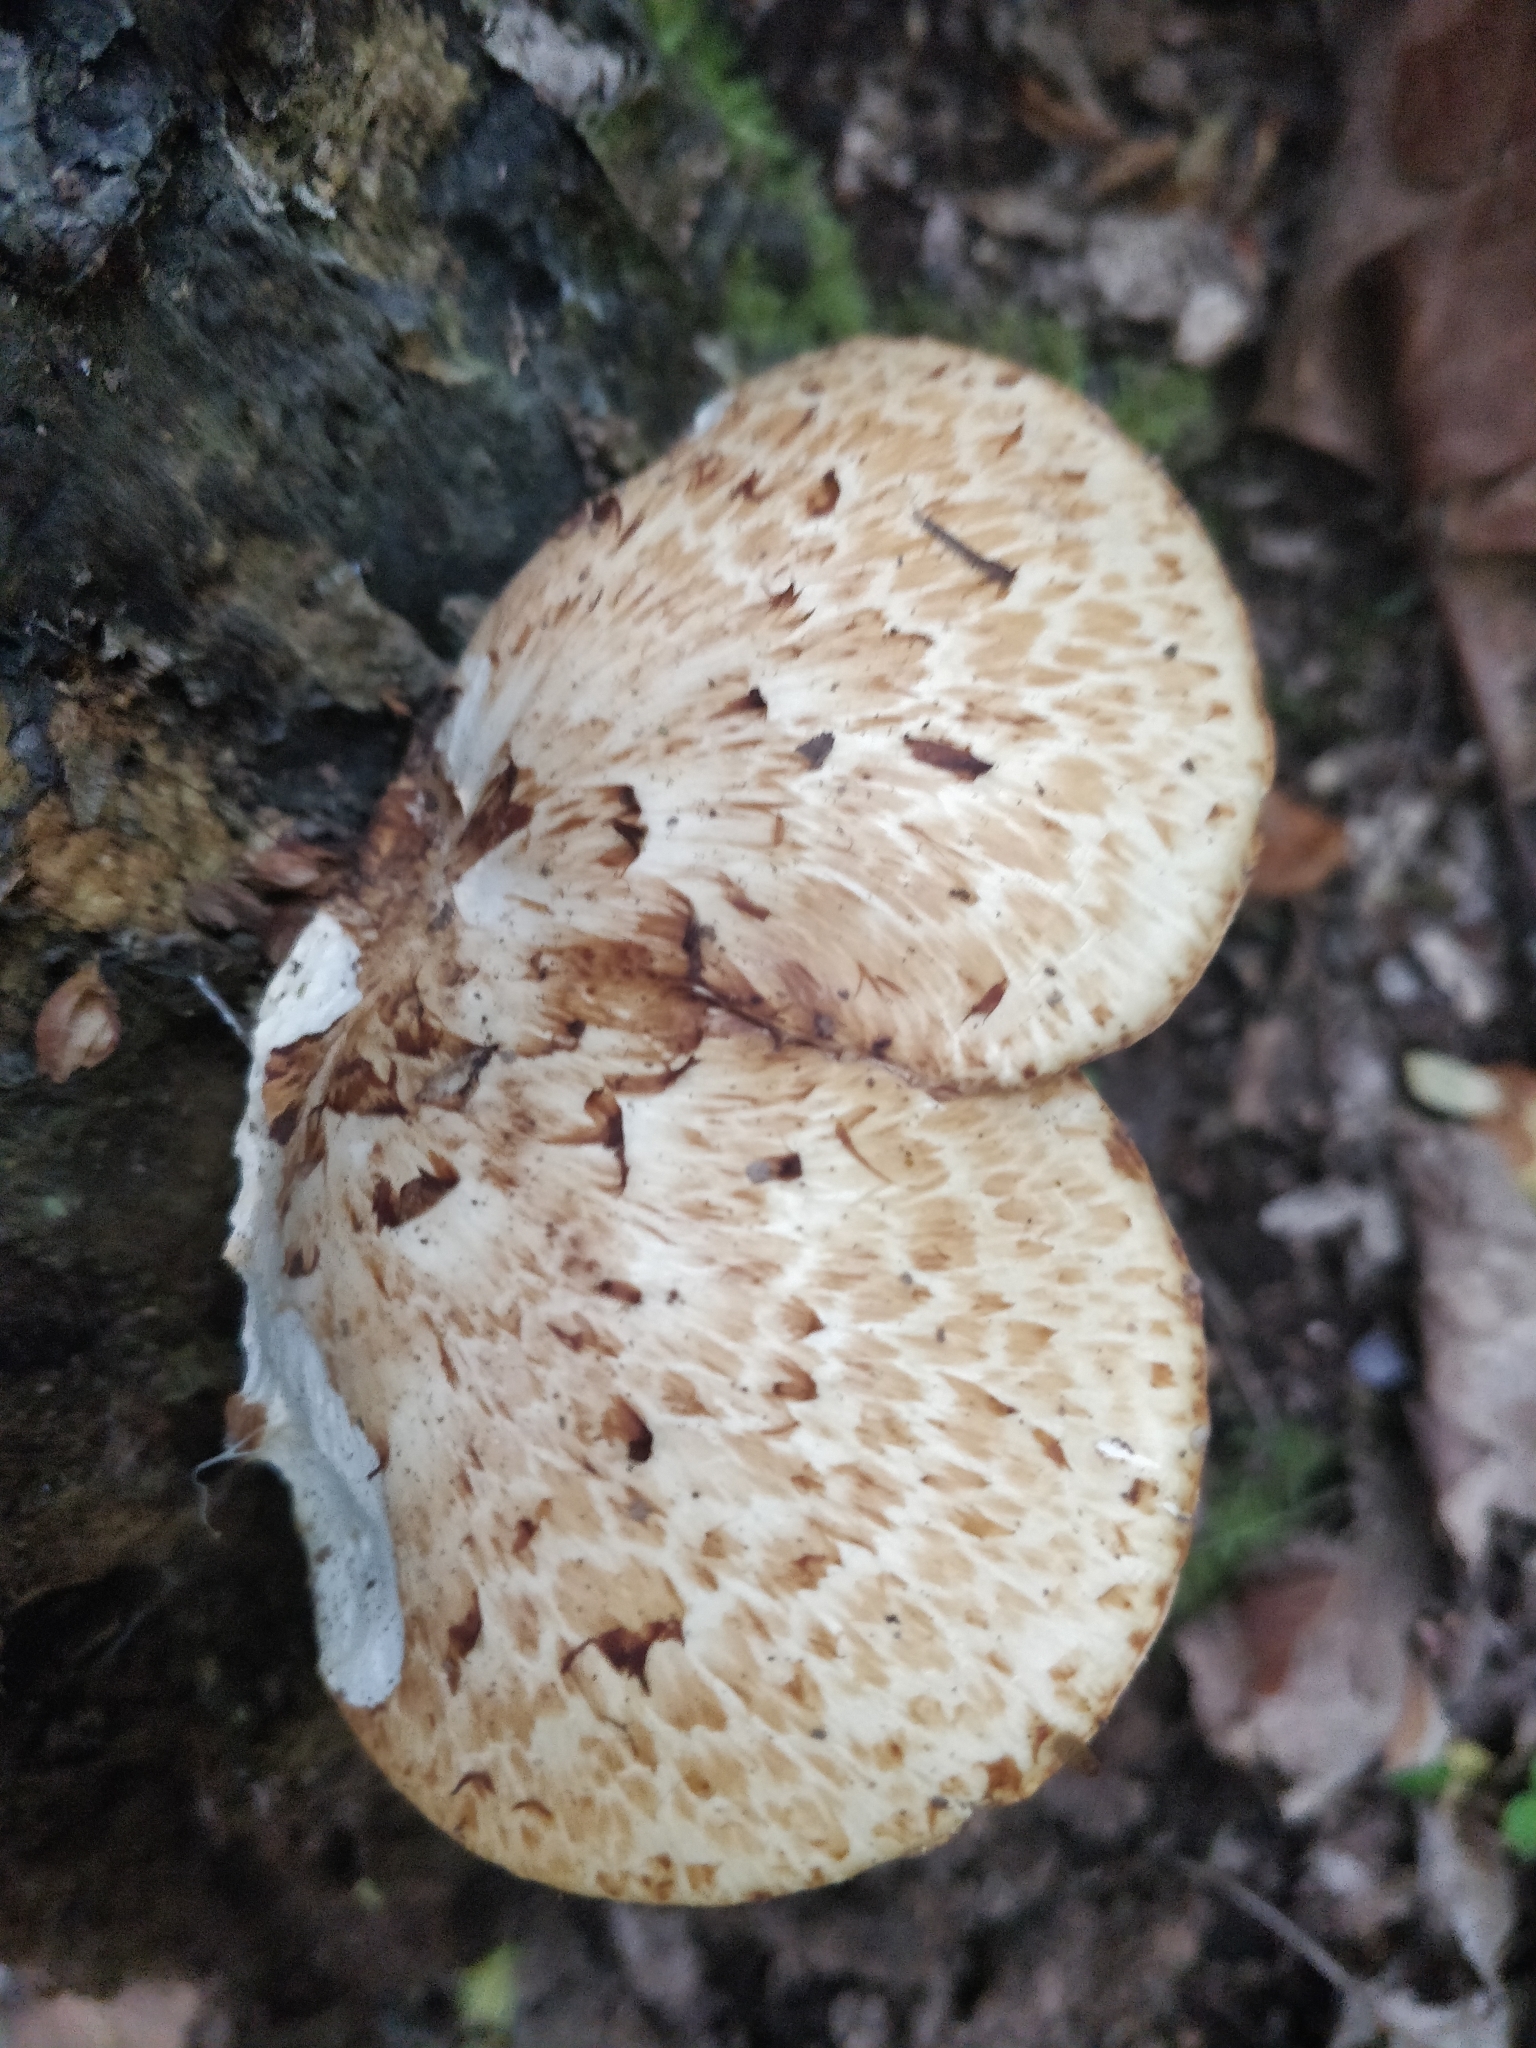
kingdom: Fungi
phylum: Basidiomycota
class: Agaricomycetes
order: Polyporales
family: Polyporaceae
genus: Cerioporus
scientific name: Cerioporus squamosus
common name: Dryad's saddle
